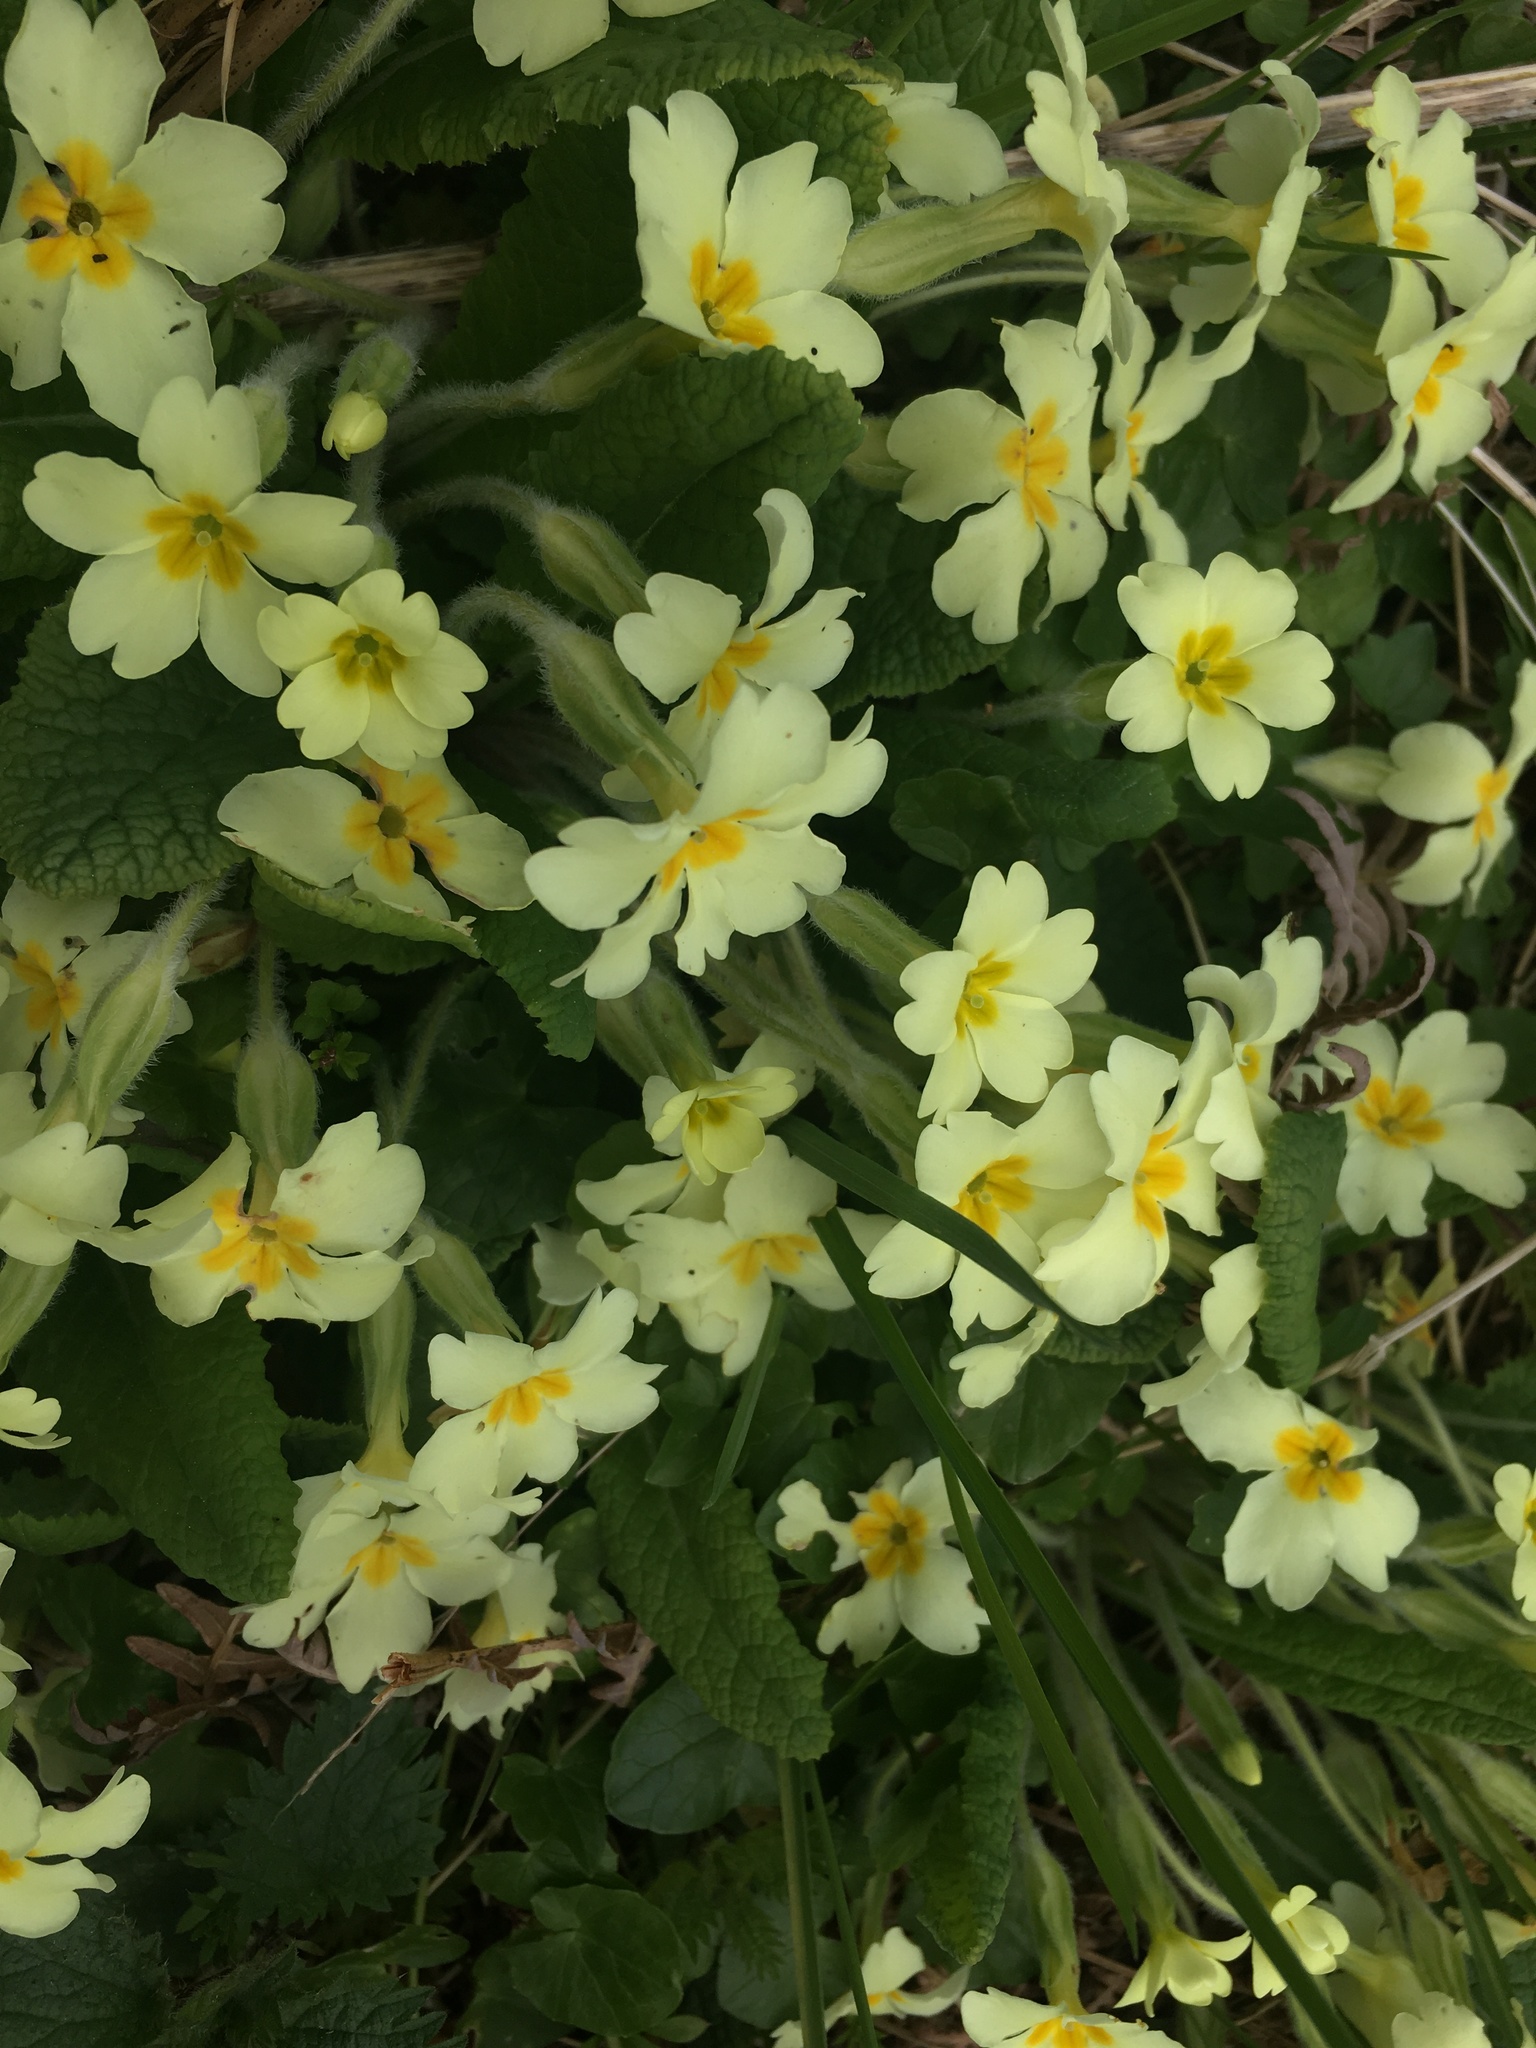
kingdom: Plantae
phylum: Tracheophyta
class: Magnoliopsida
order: Ericales
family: Primulaceae
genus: Primula
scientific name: Primula vulgaris
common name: Primrose
